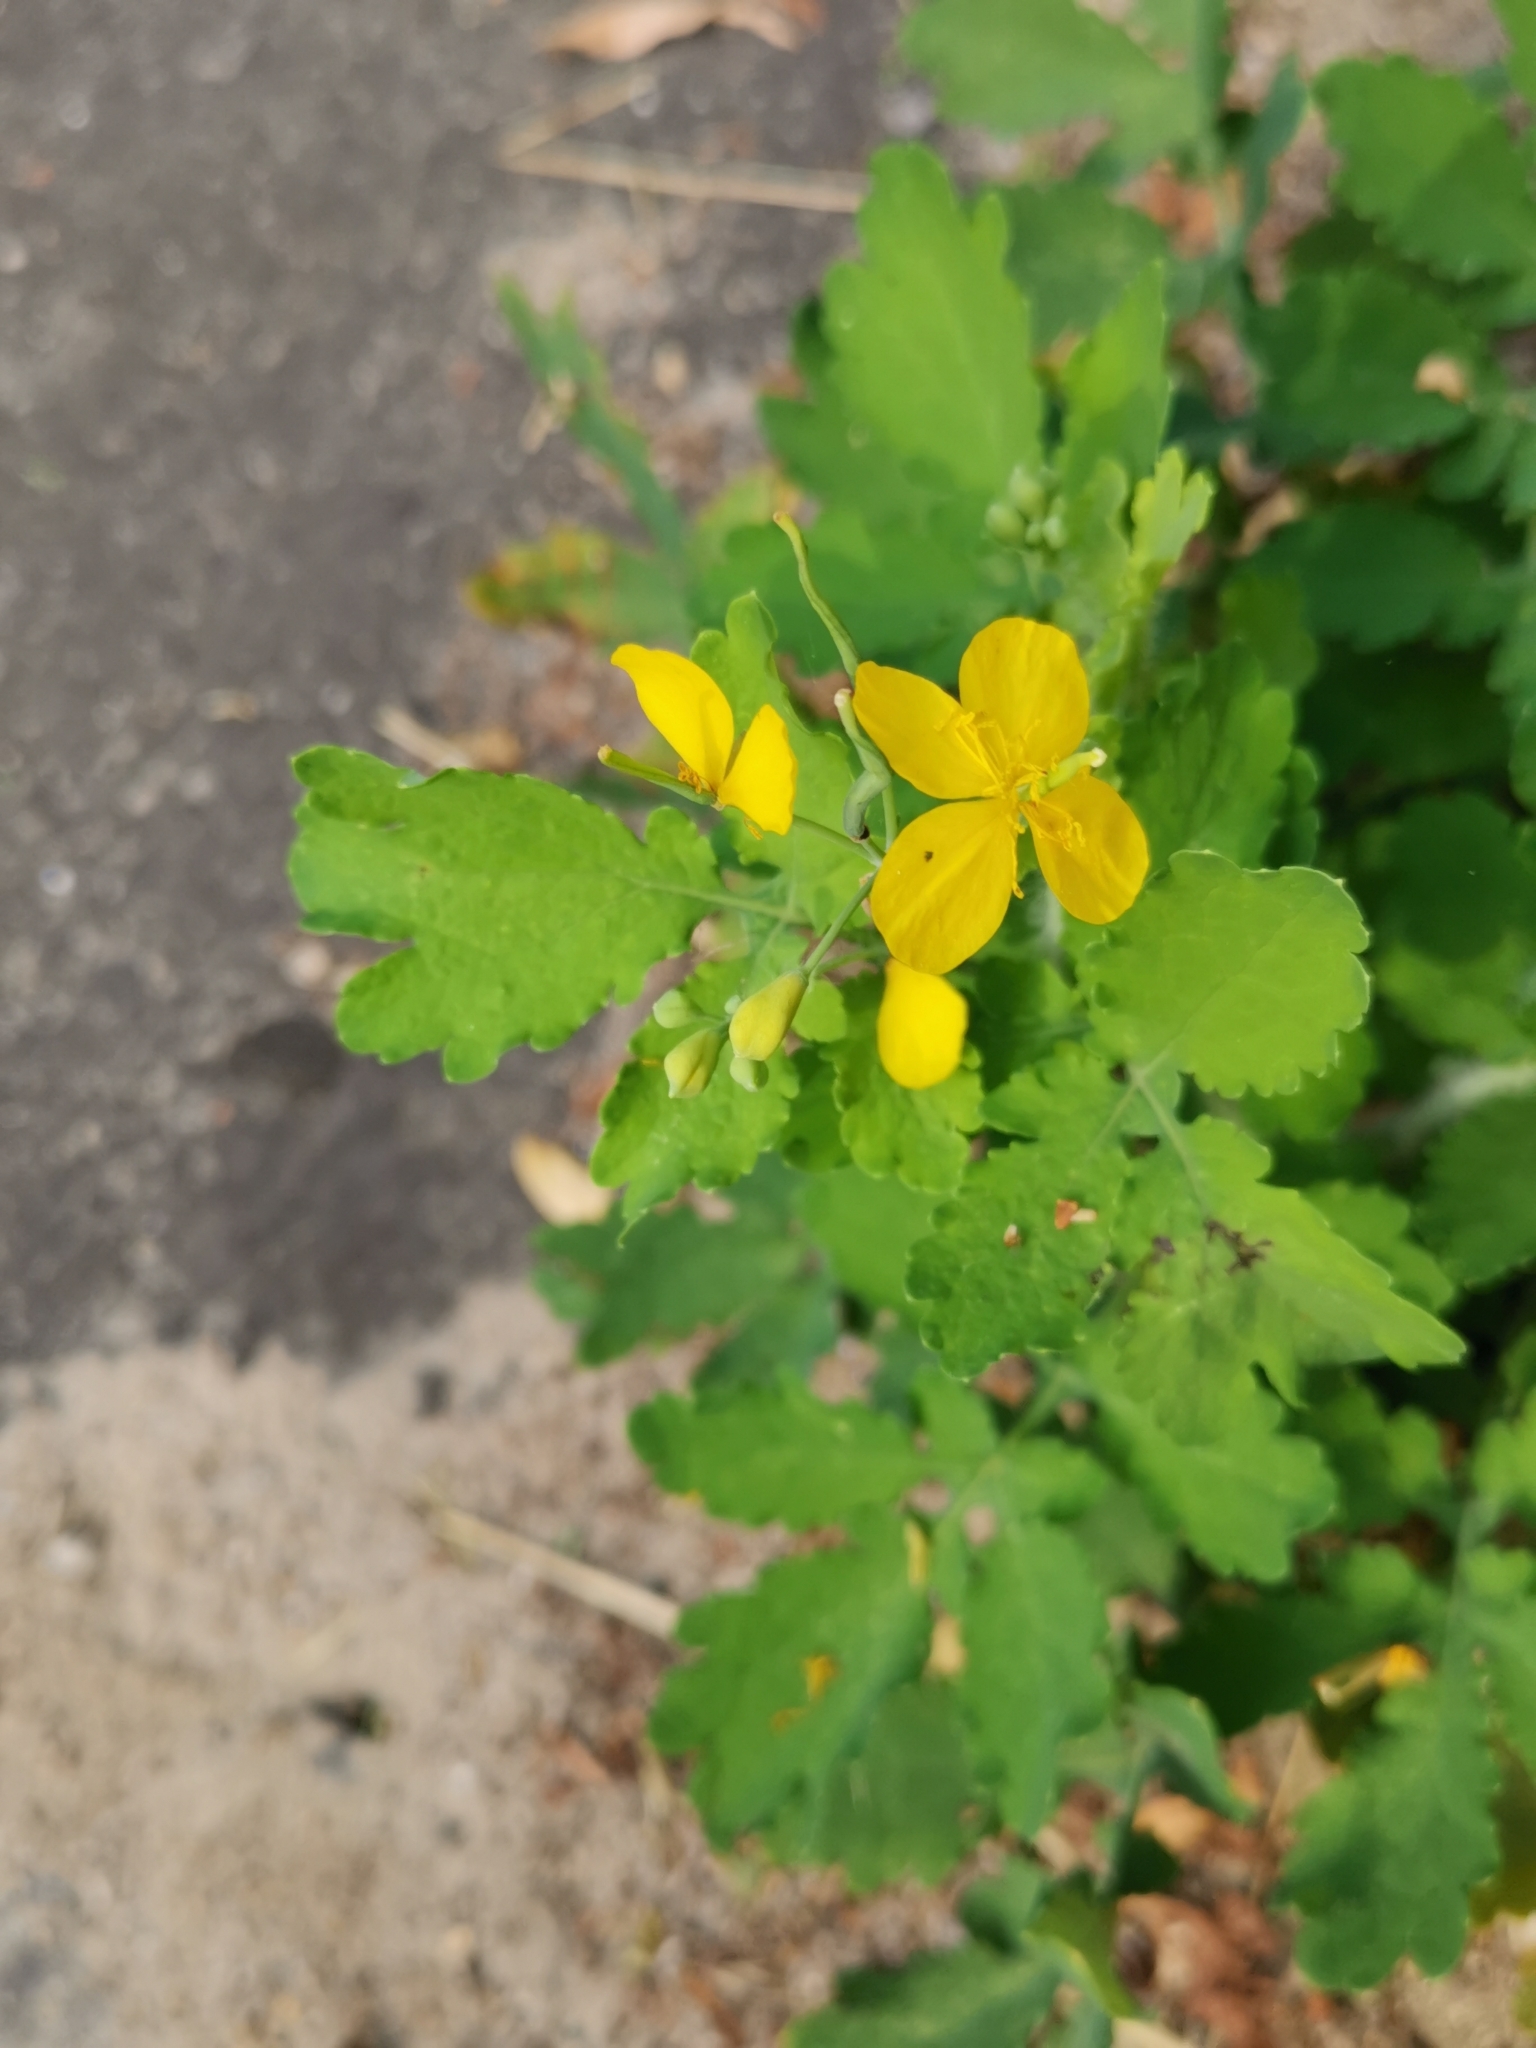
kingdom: Plantae
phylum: Tracheophyta
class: Magnoliopsida
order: Ranunculales
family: Papaveraceae
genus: Chelidonium
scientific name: Chelidonium majus
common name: Greater celandine
